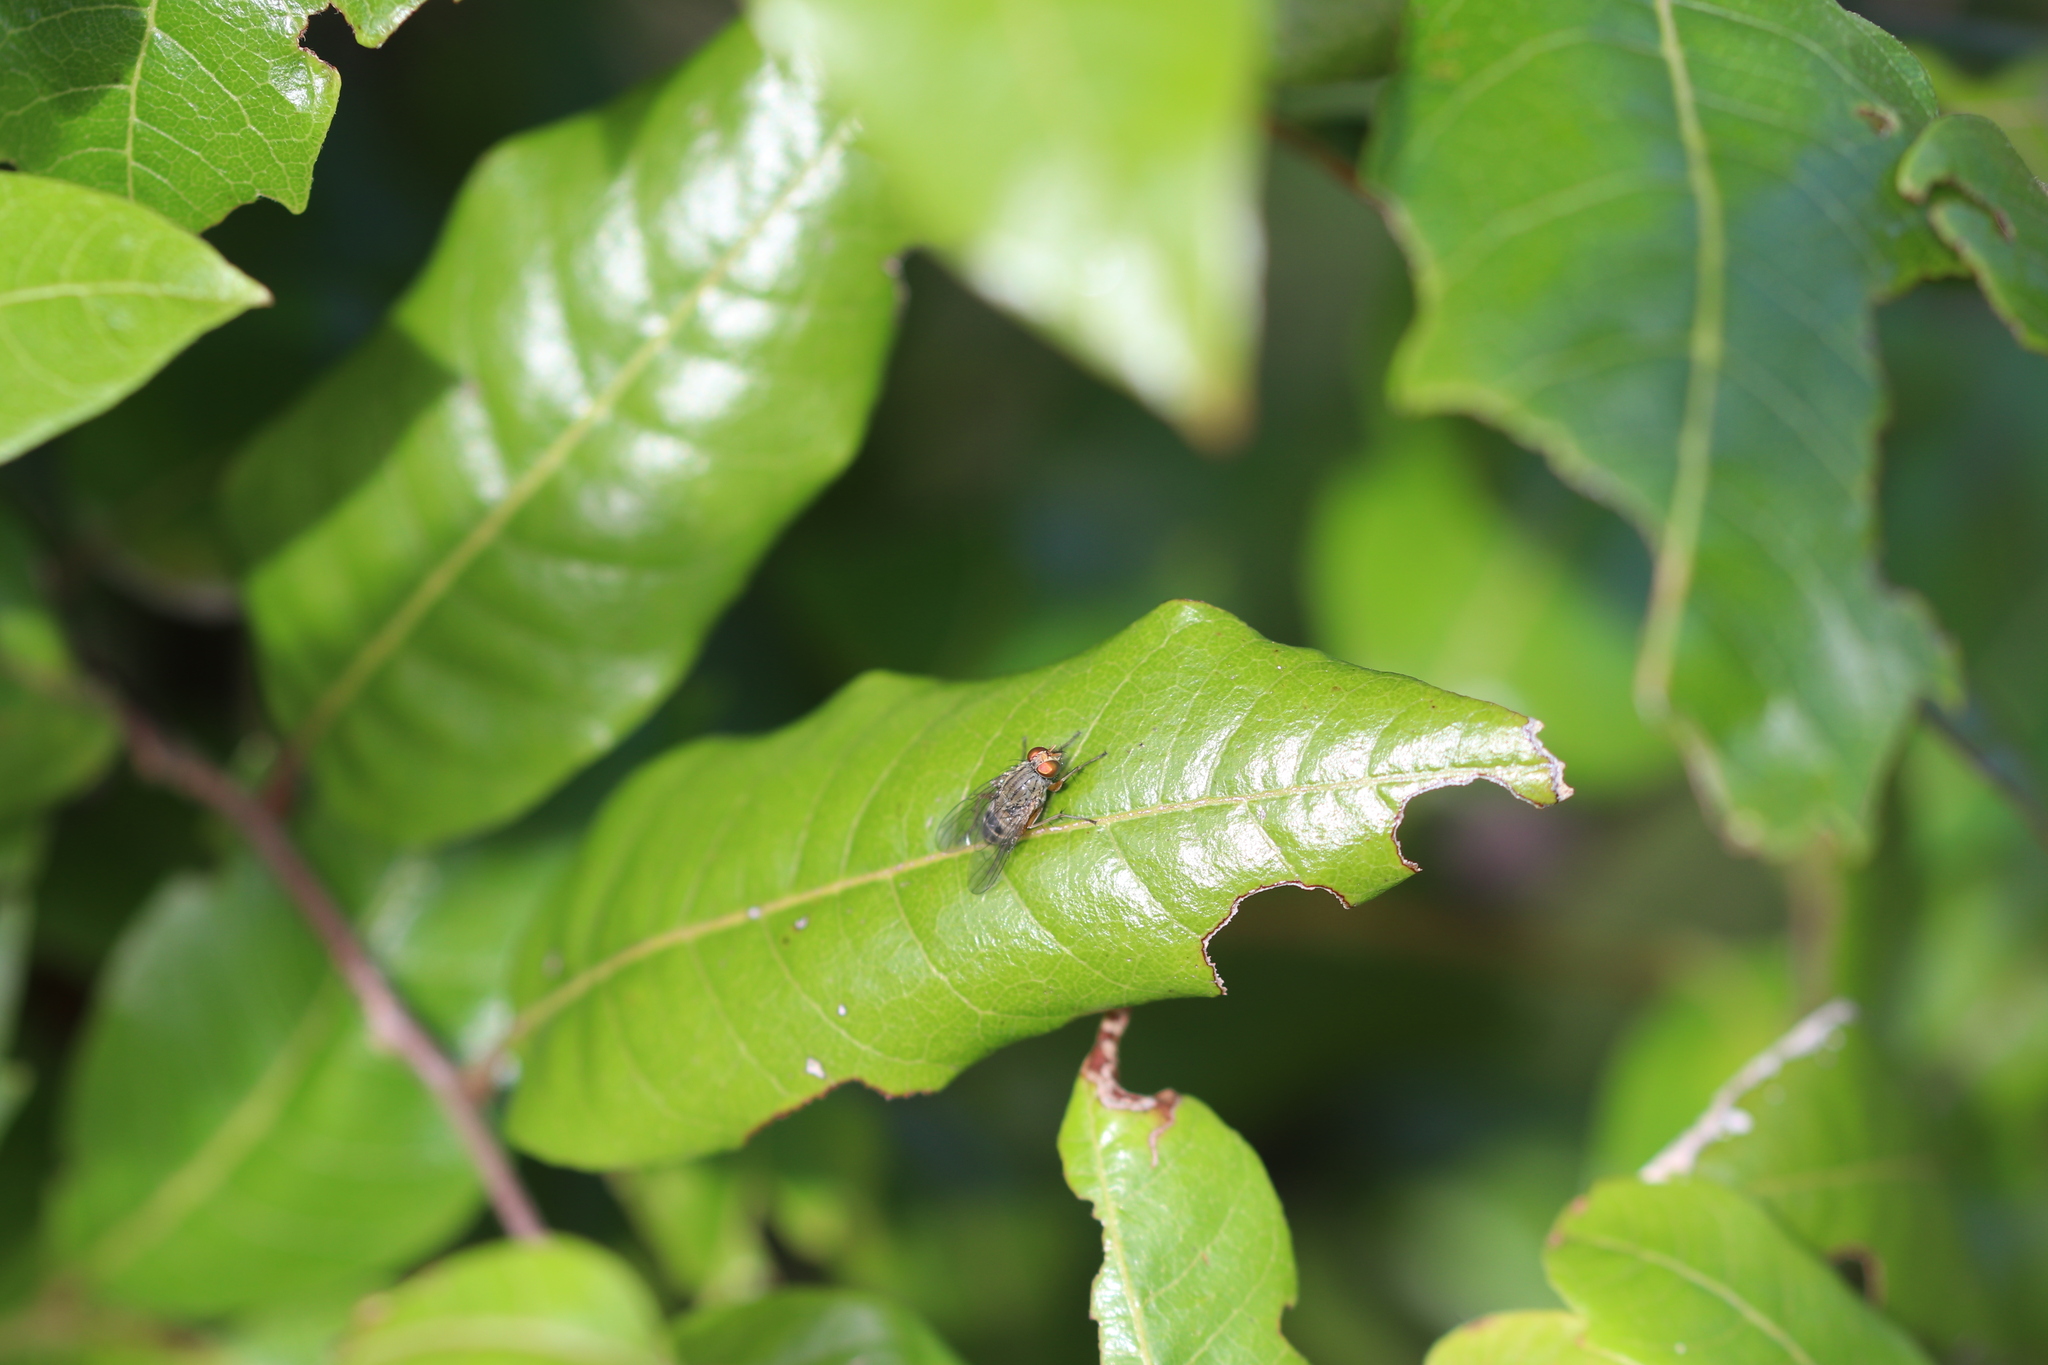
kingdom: Animalia
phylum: Arthropoda
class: Insecta
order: Diptera
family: Muscidae
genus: Pygophora
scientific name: Pygophora apicalis
